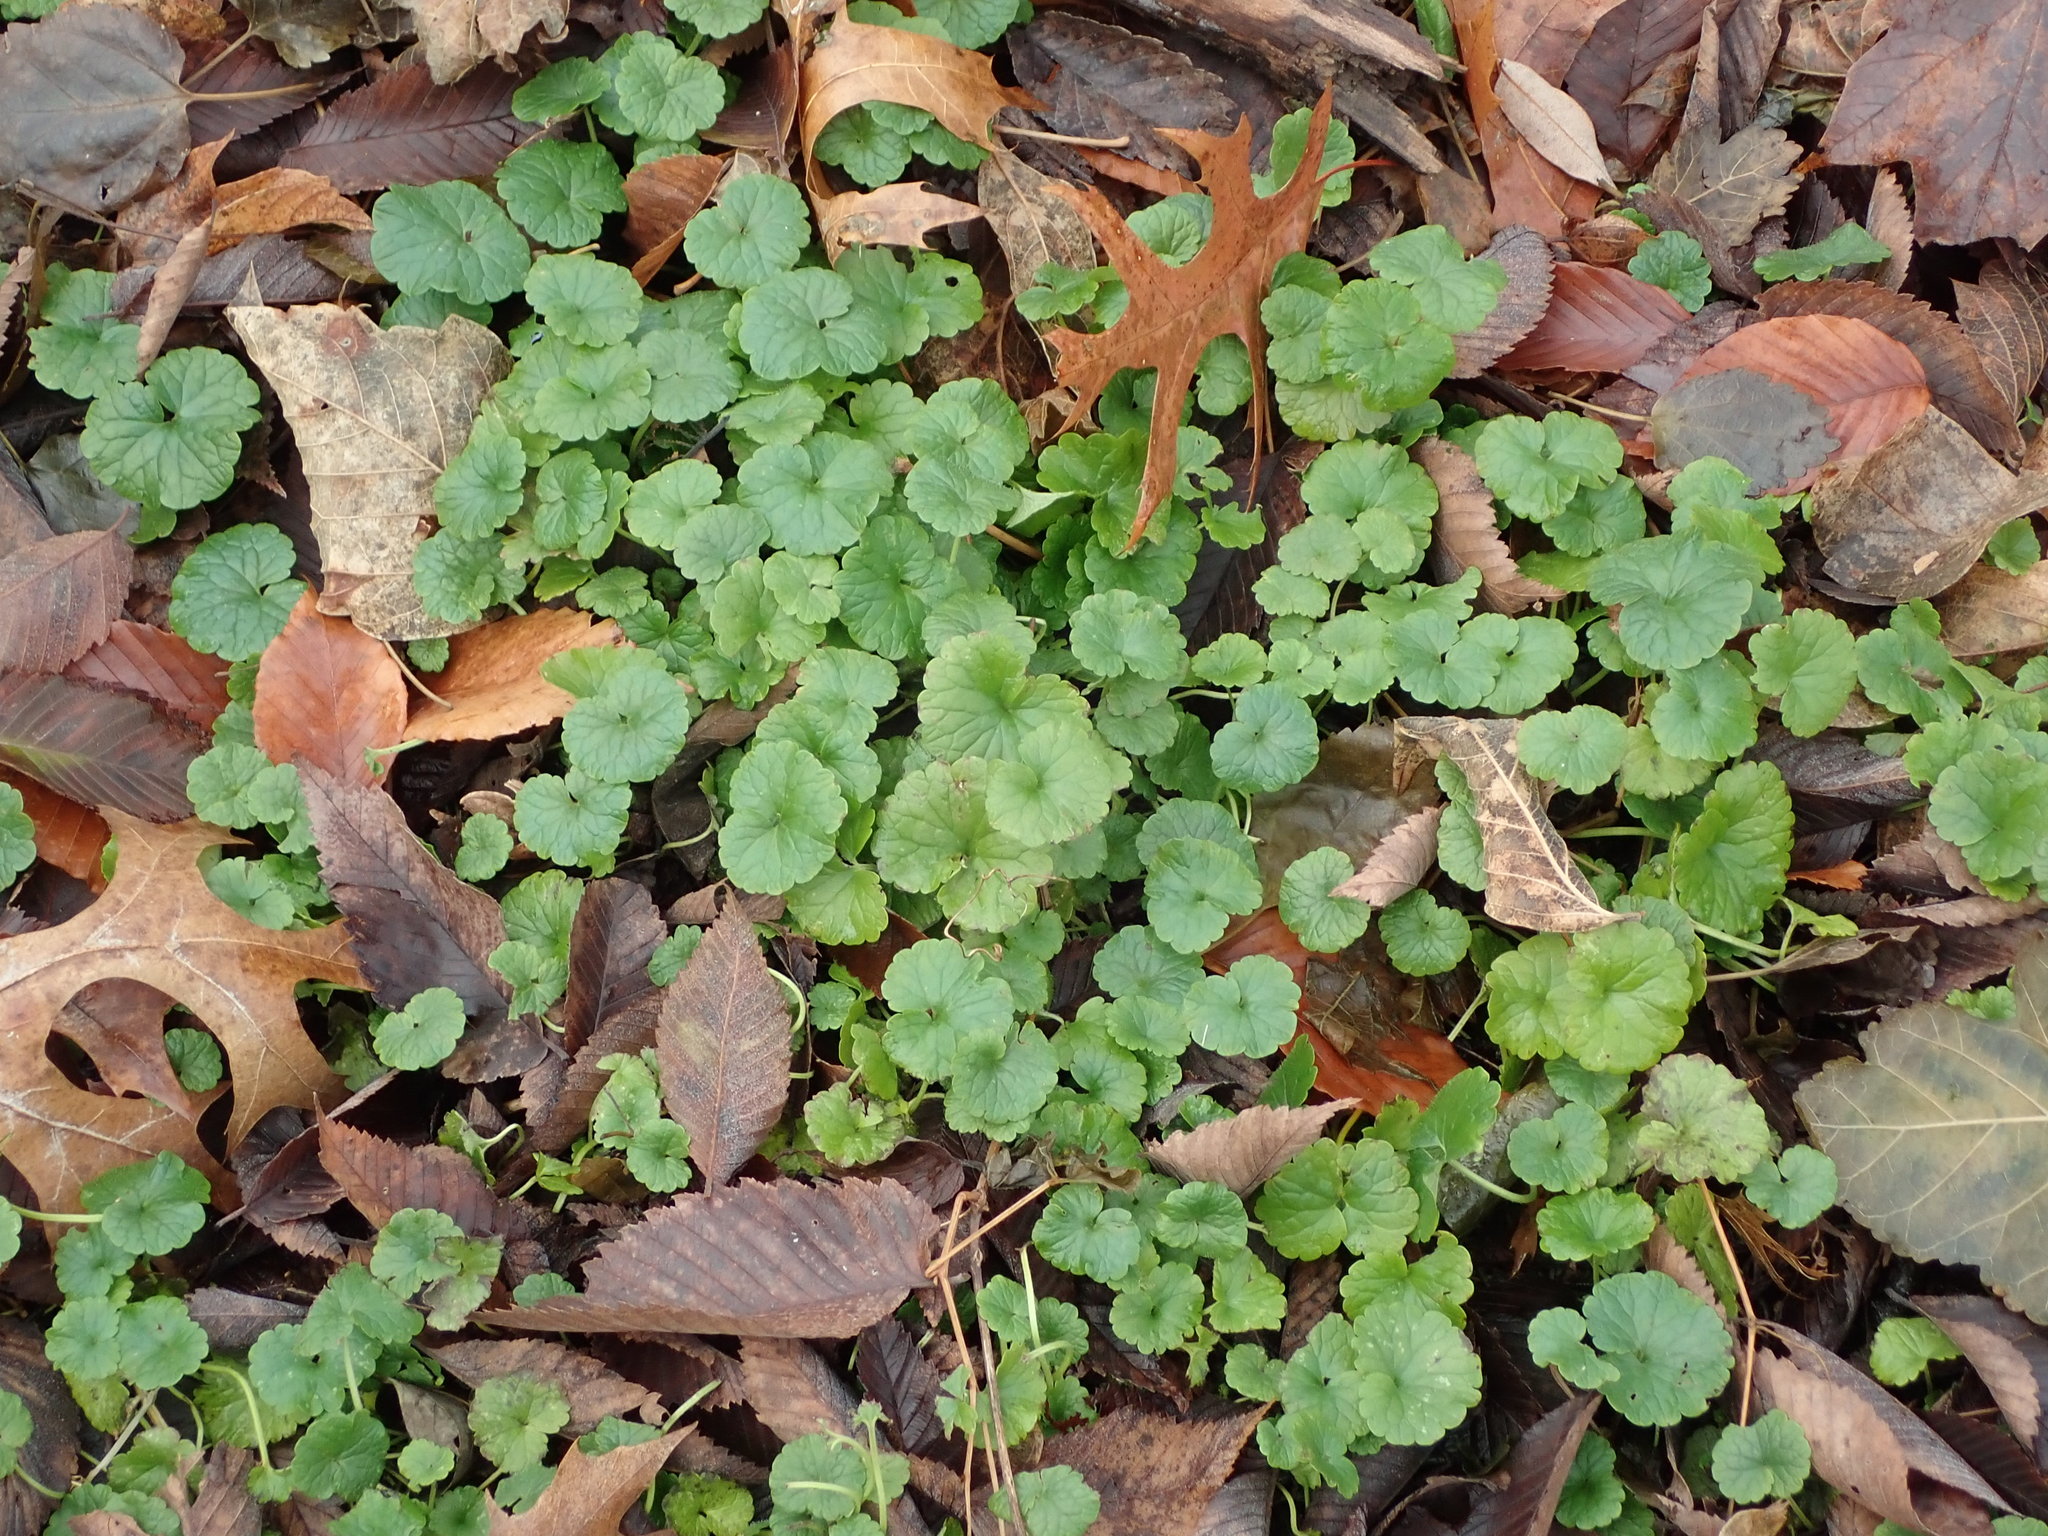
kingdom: Plantae
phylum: Tracheophyta
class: Magnoliopsida
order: Lamiales
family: Lamiaceae
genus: Glechoma
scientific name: Glechoma hederacea
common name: Ground ivy
